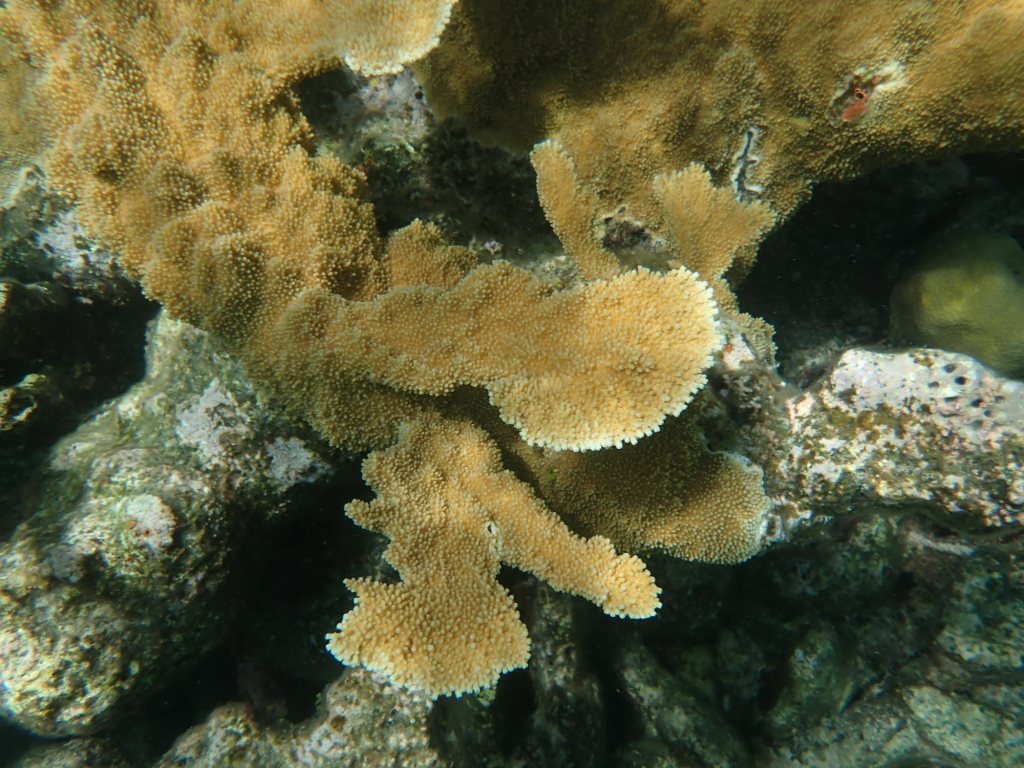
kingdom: Animalia
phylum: Cnidaria
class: Anthozoa
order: Scleractinia
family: Acroporidae
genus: Acropora
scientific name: Acropora palmata
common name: Elkhorn coral
